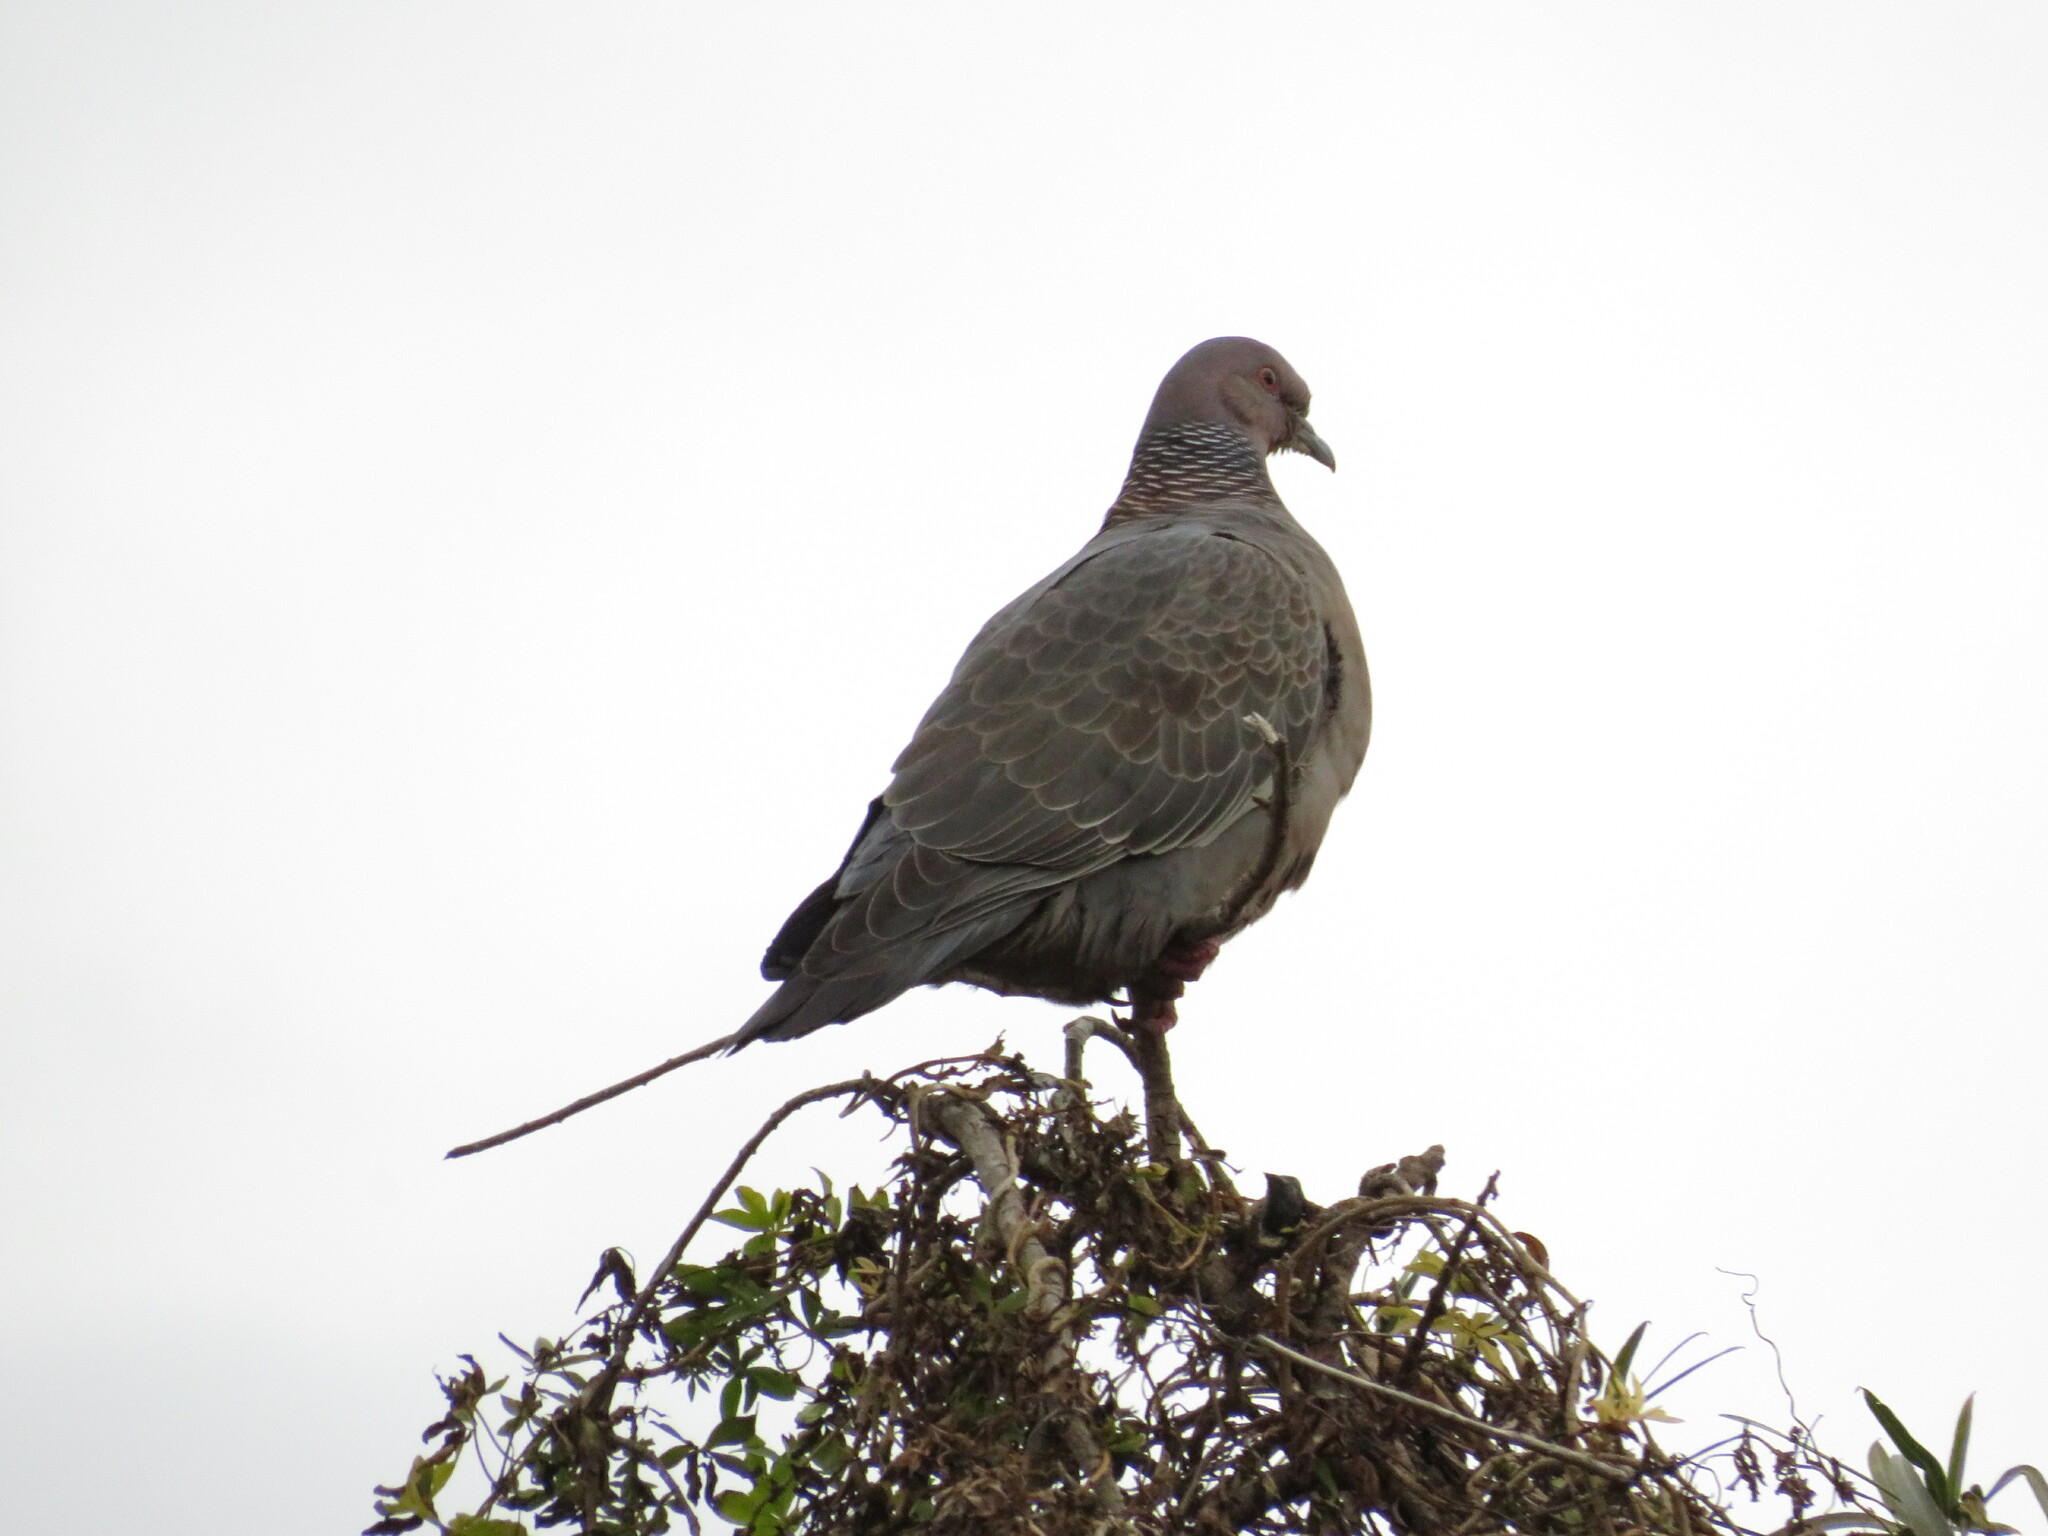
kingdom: Animalia
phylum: Chordata
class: Aves
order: Columbiformes
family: Columbidae
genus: Patagioenas
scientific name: Patagioenas picazuro
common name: Picazuro pigeon
